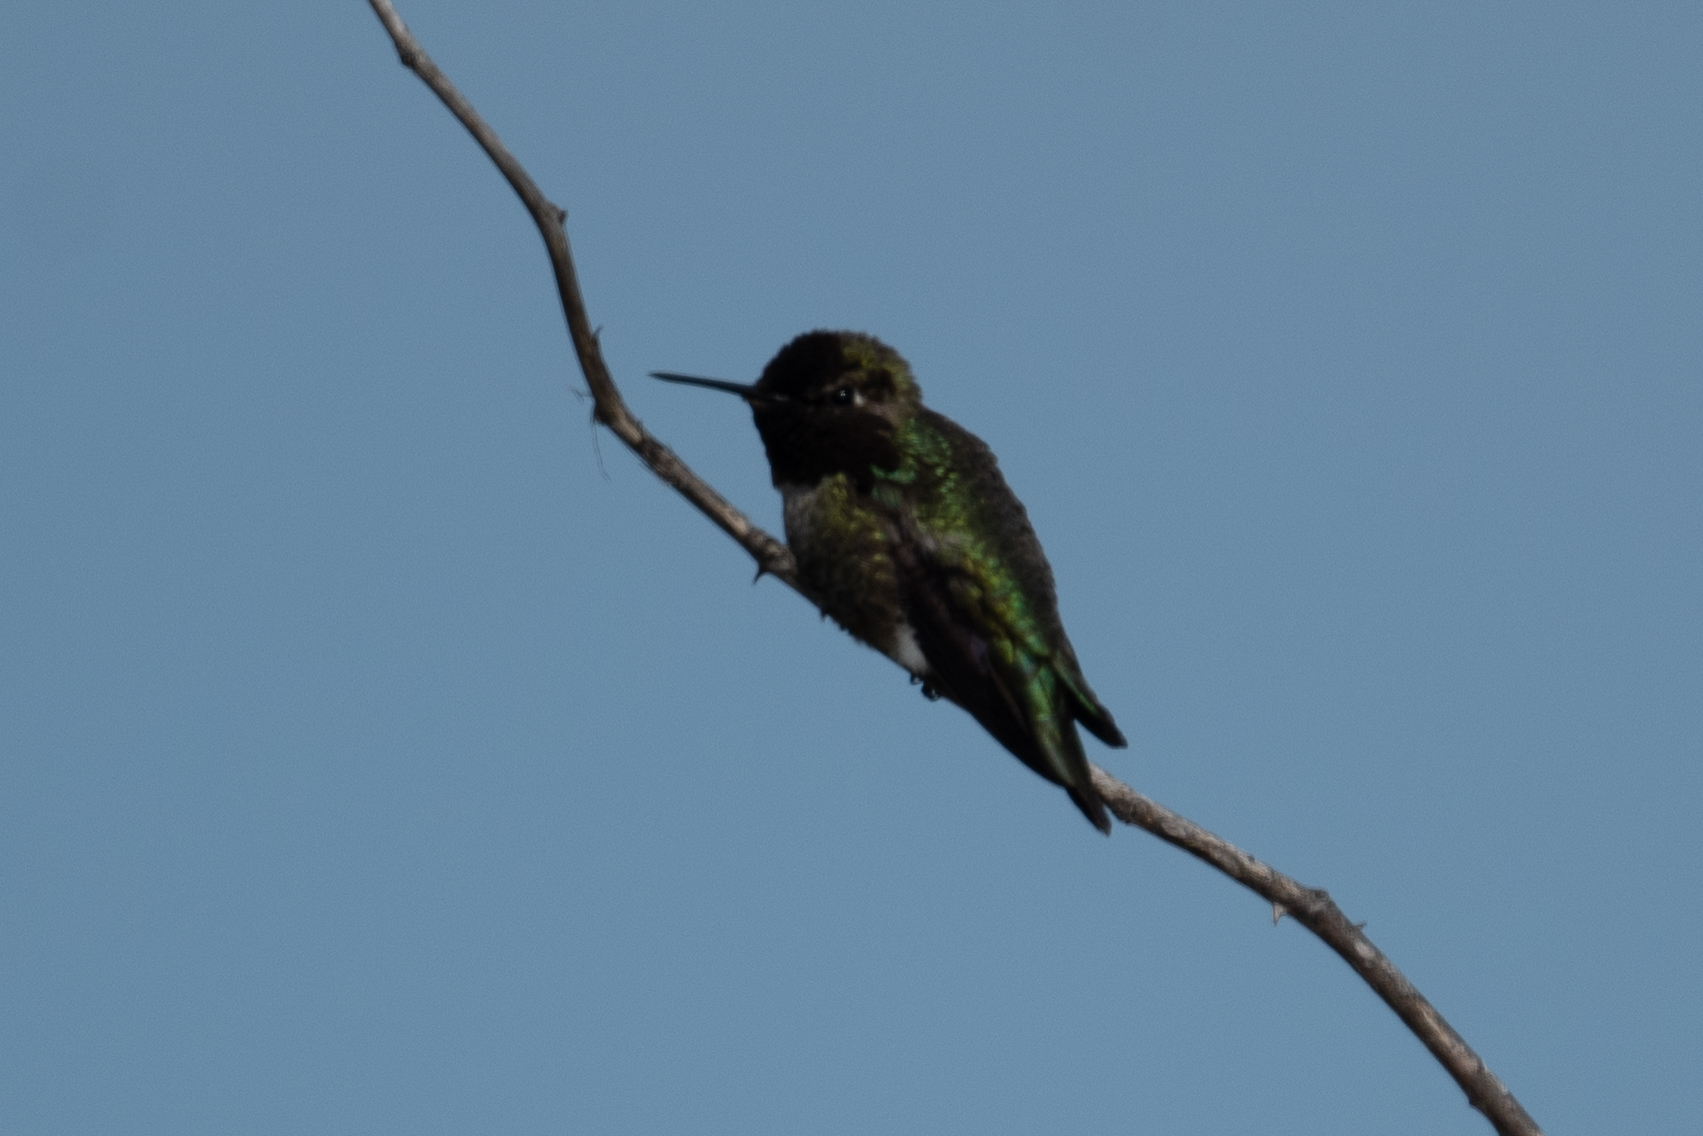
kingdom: Animalia
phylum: Chordata
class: Aves
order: Apodiformes
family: Trochilidae
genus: Calypte
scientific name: Calypte anna
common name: Anna's hummingbird
